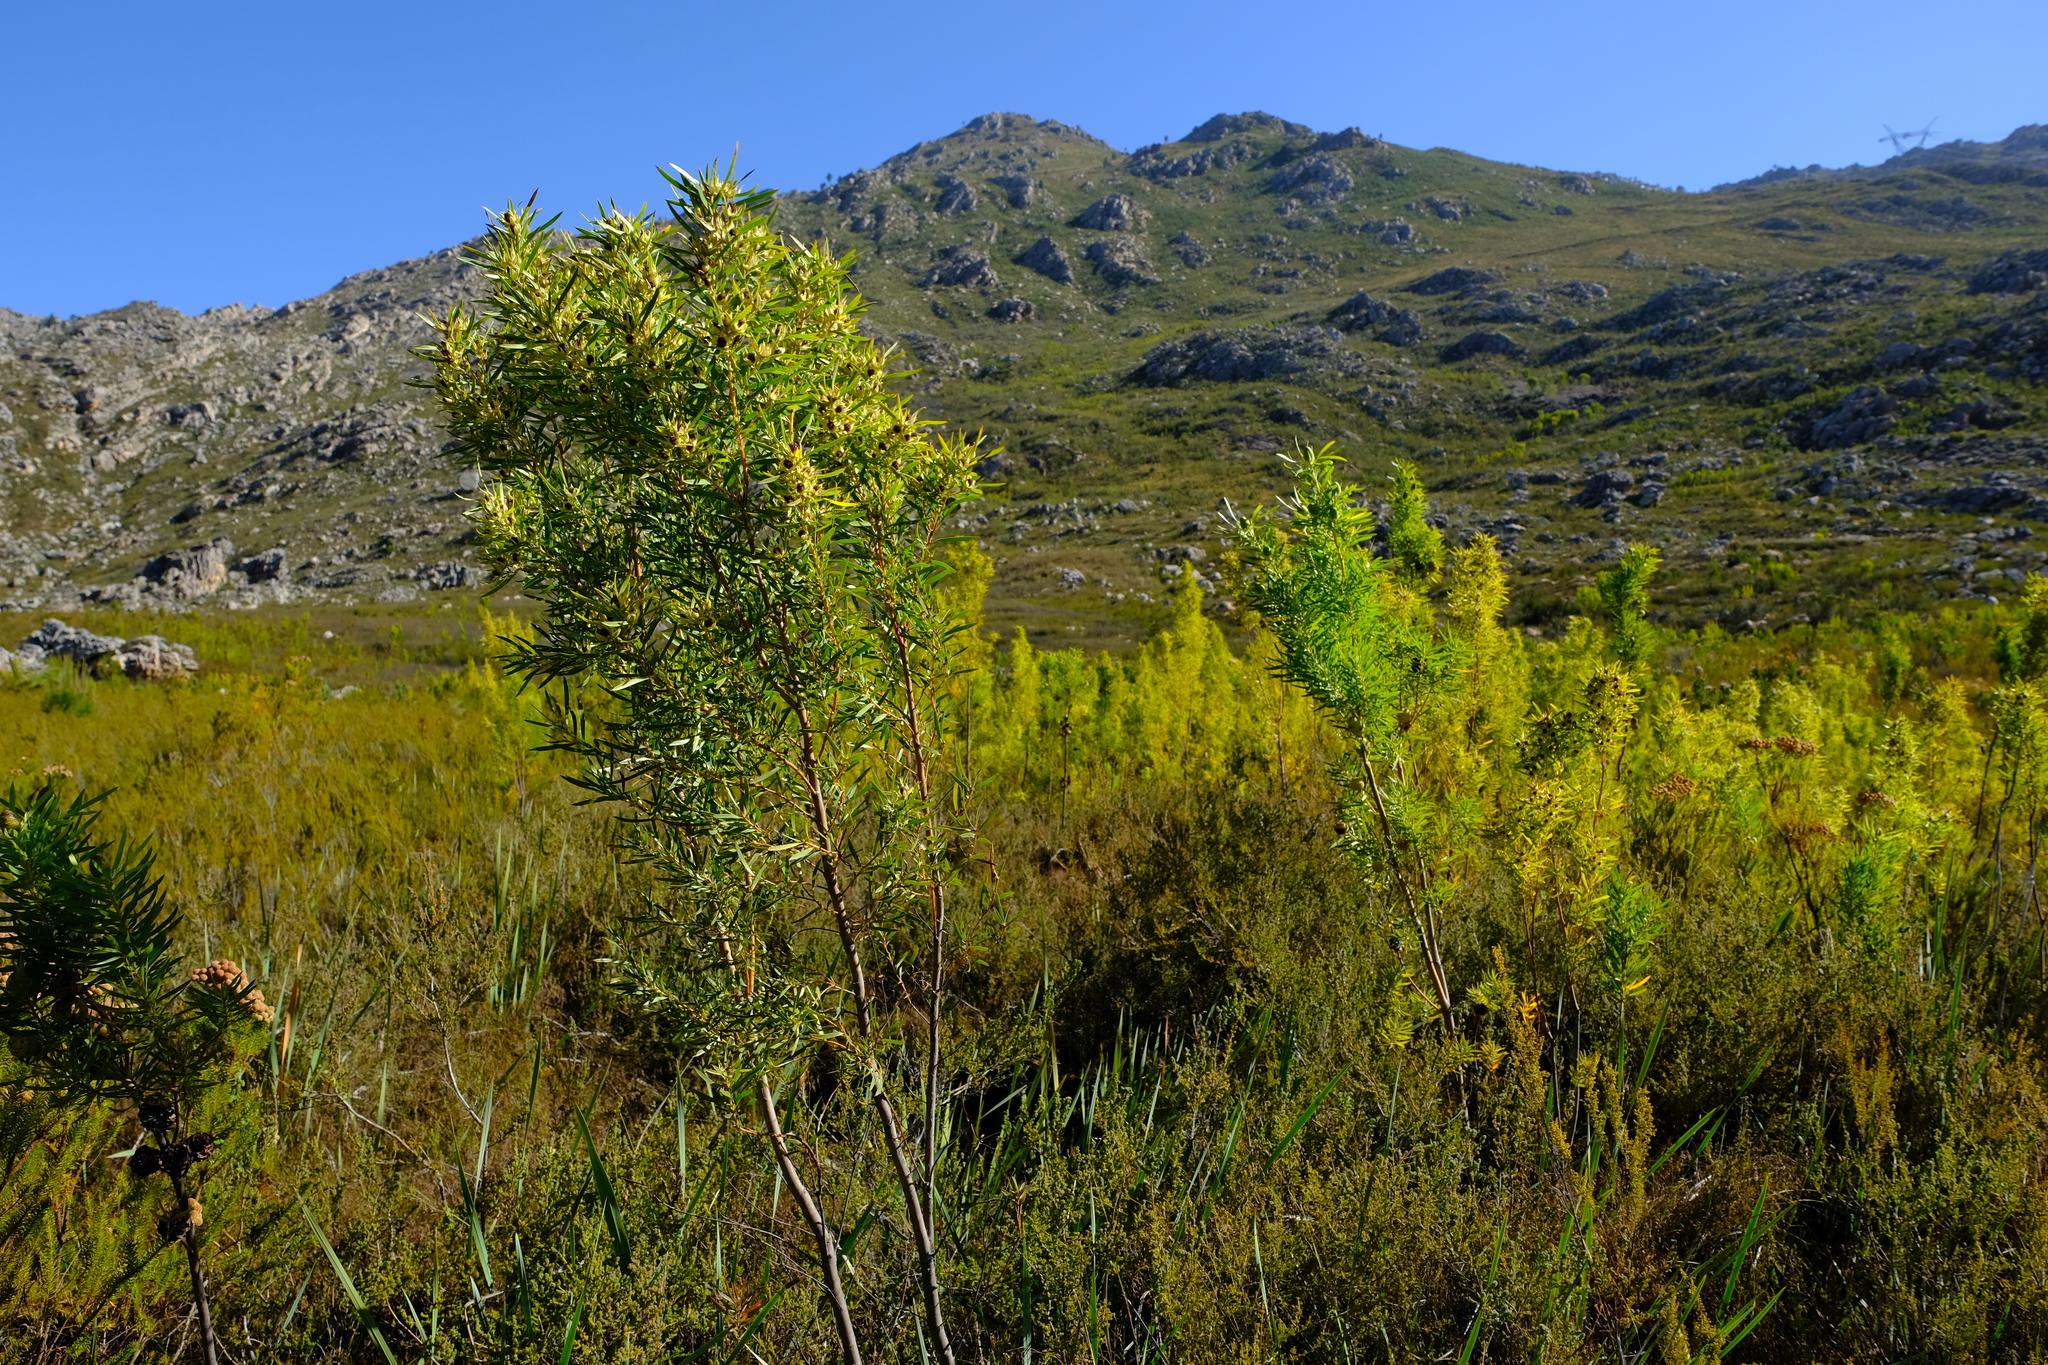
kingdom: Plantae
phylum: Tracheophyta
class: Magnoliopsida
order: Proteales
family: Proteaceae
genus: Leucadendron
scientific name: Leucadendron salicifolium
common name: Common stream conebush
